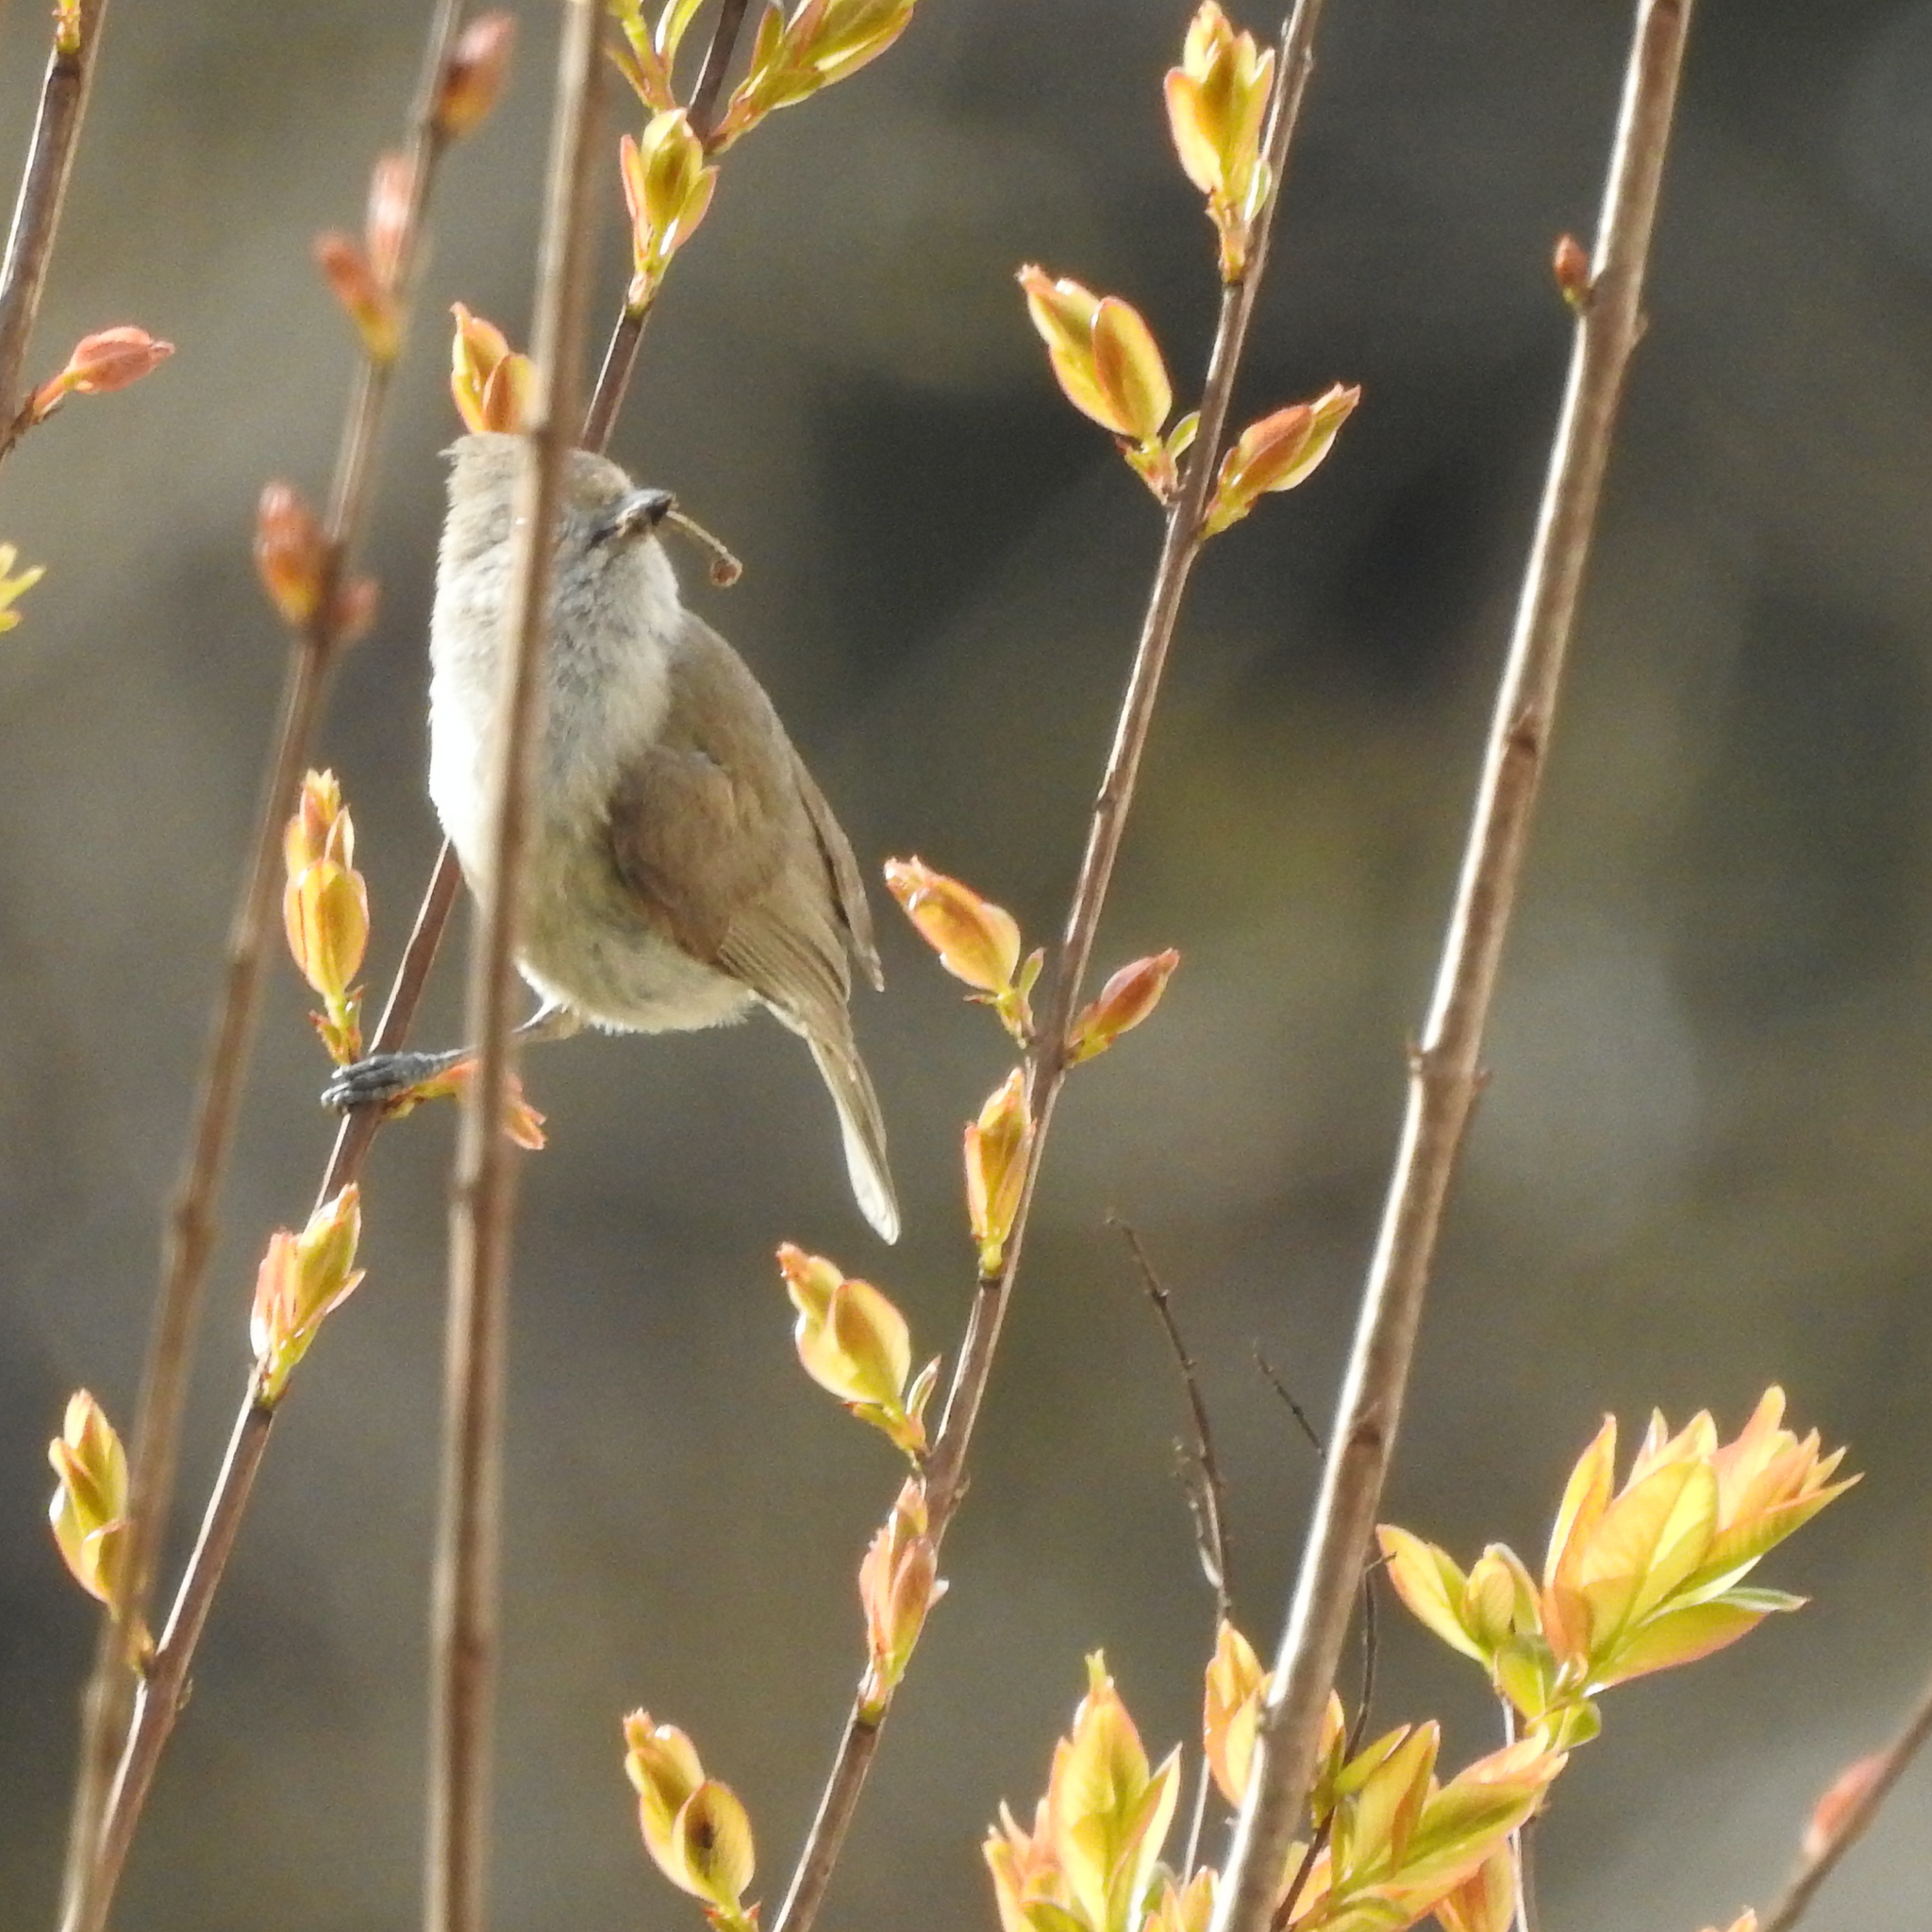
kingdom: Animalia
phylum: Chordata
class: Aves
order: Passeriformes
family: Paridae
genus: Baeolophus
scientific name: Baeolophus inornatus
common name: Oak titmouse
